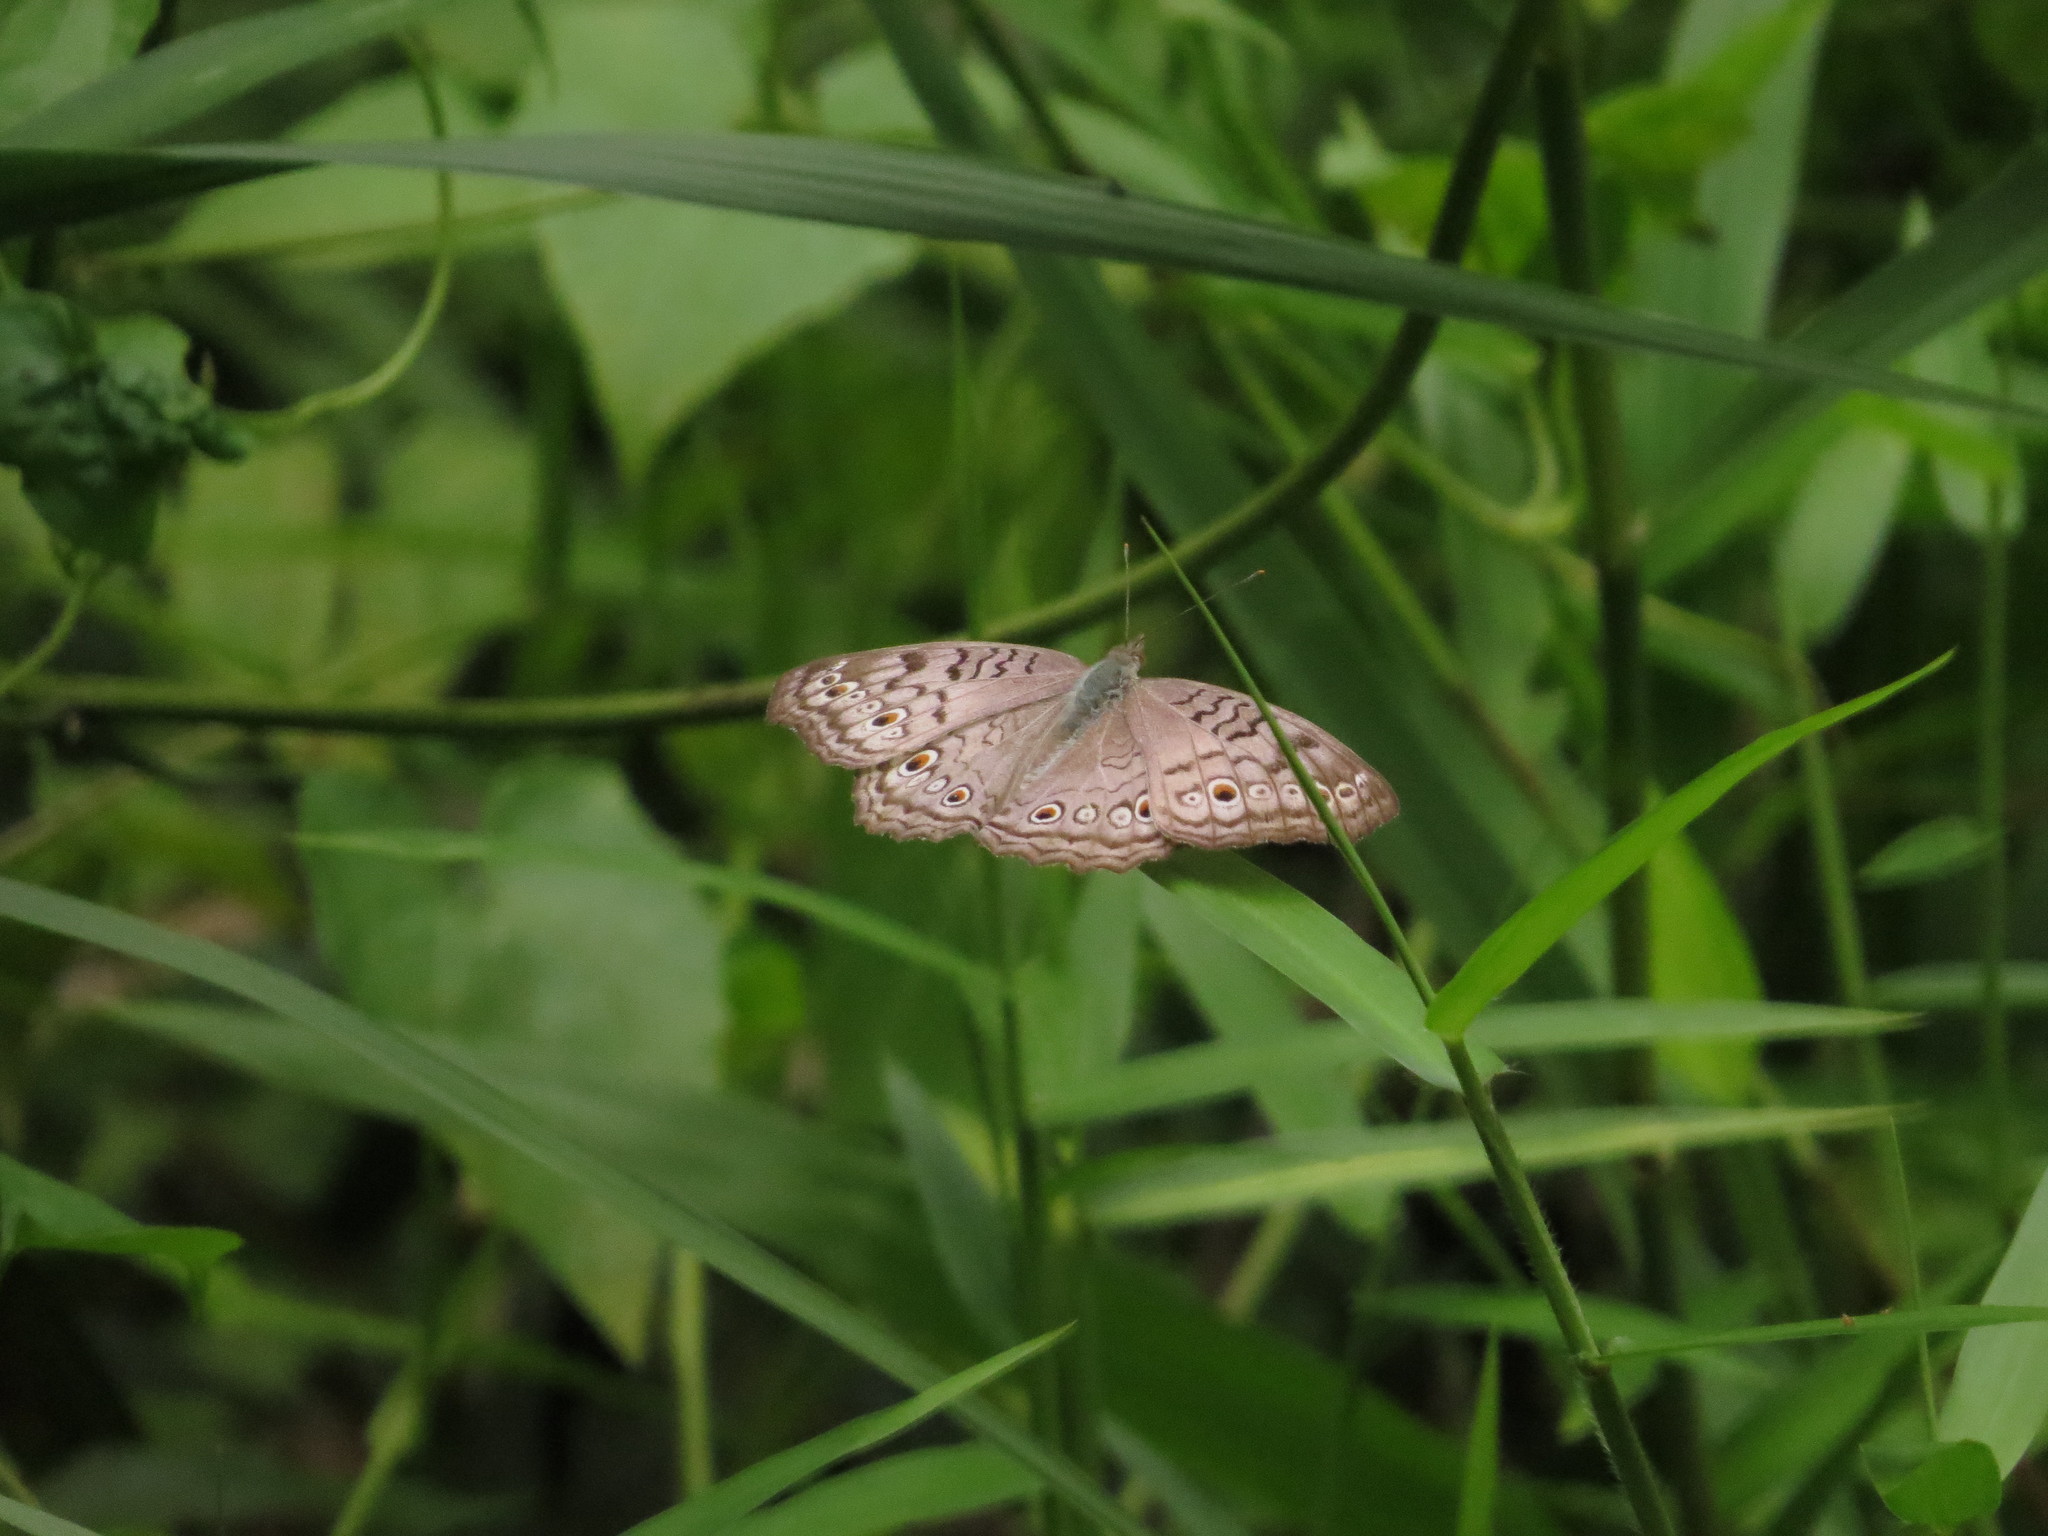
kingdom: Animalia
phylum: Arthropoda
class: Insecta
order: Lepidoptera
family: Nymphalidae
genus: Junonia
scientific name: Junonia atlites
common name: Grey pansy
